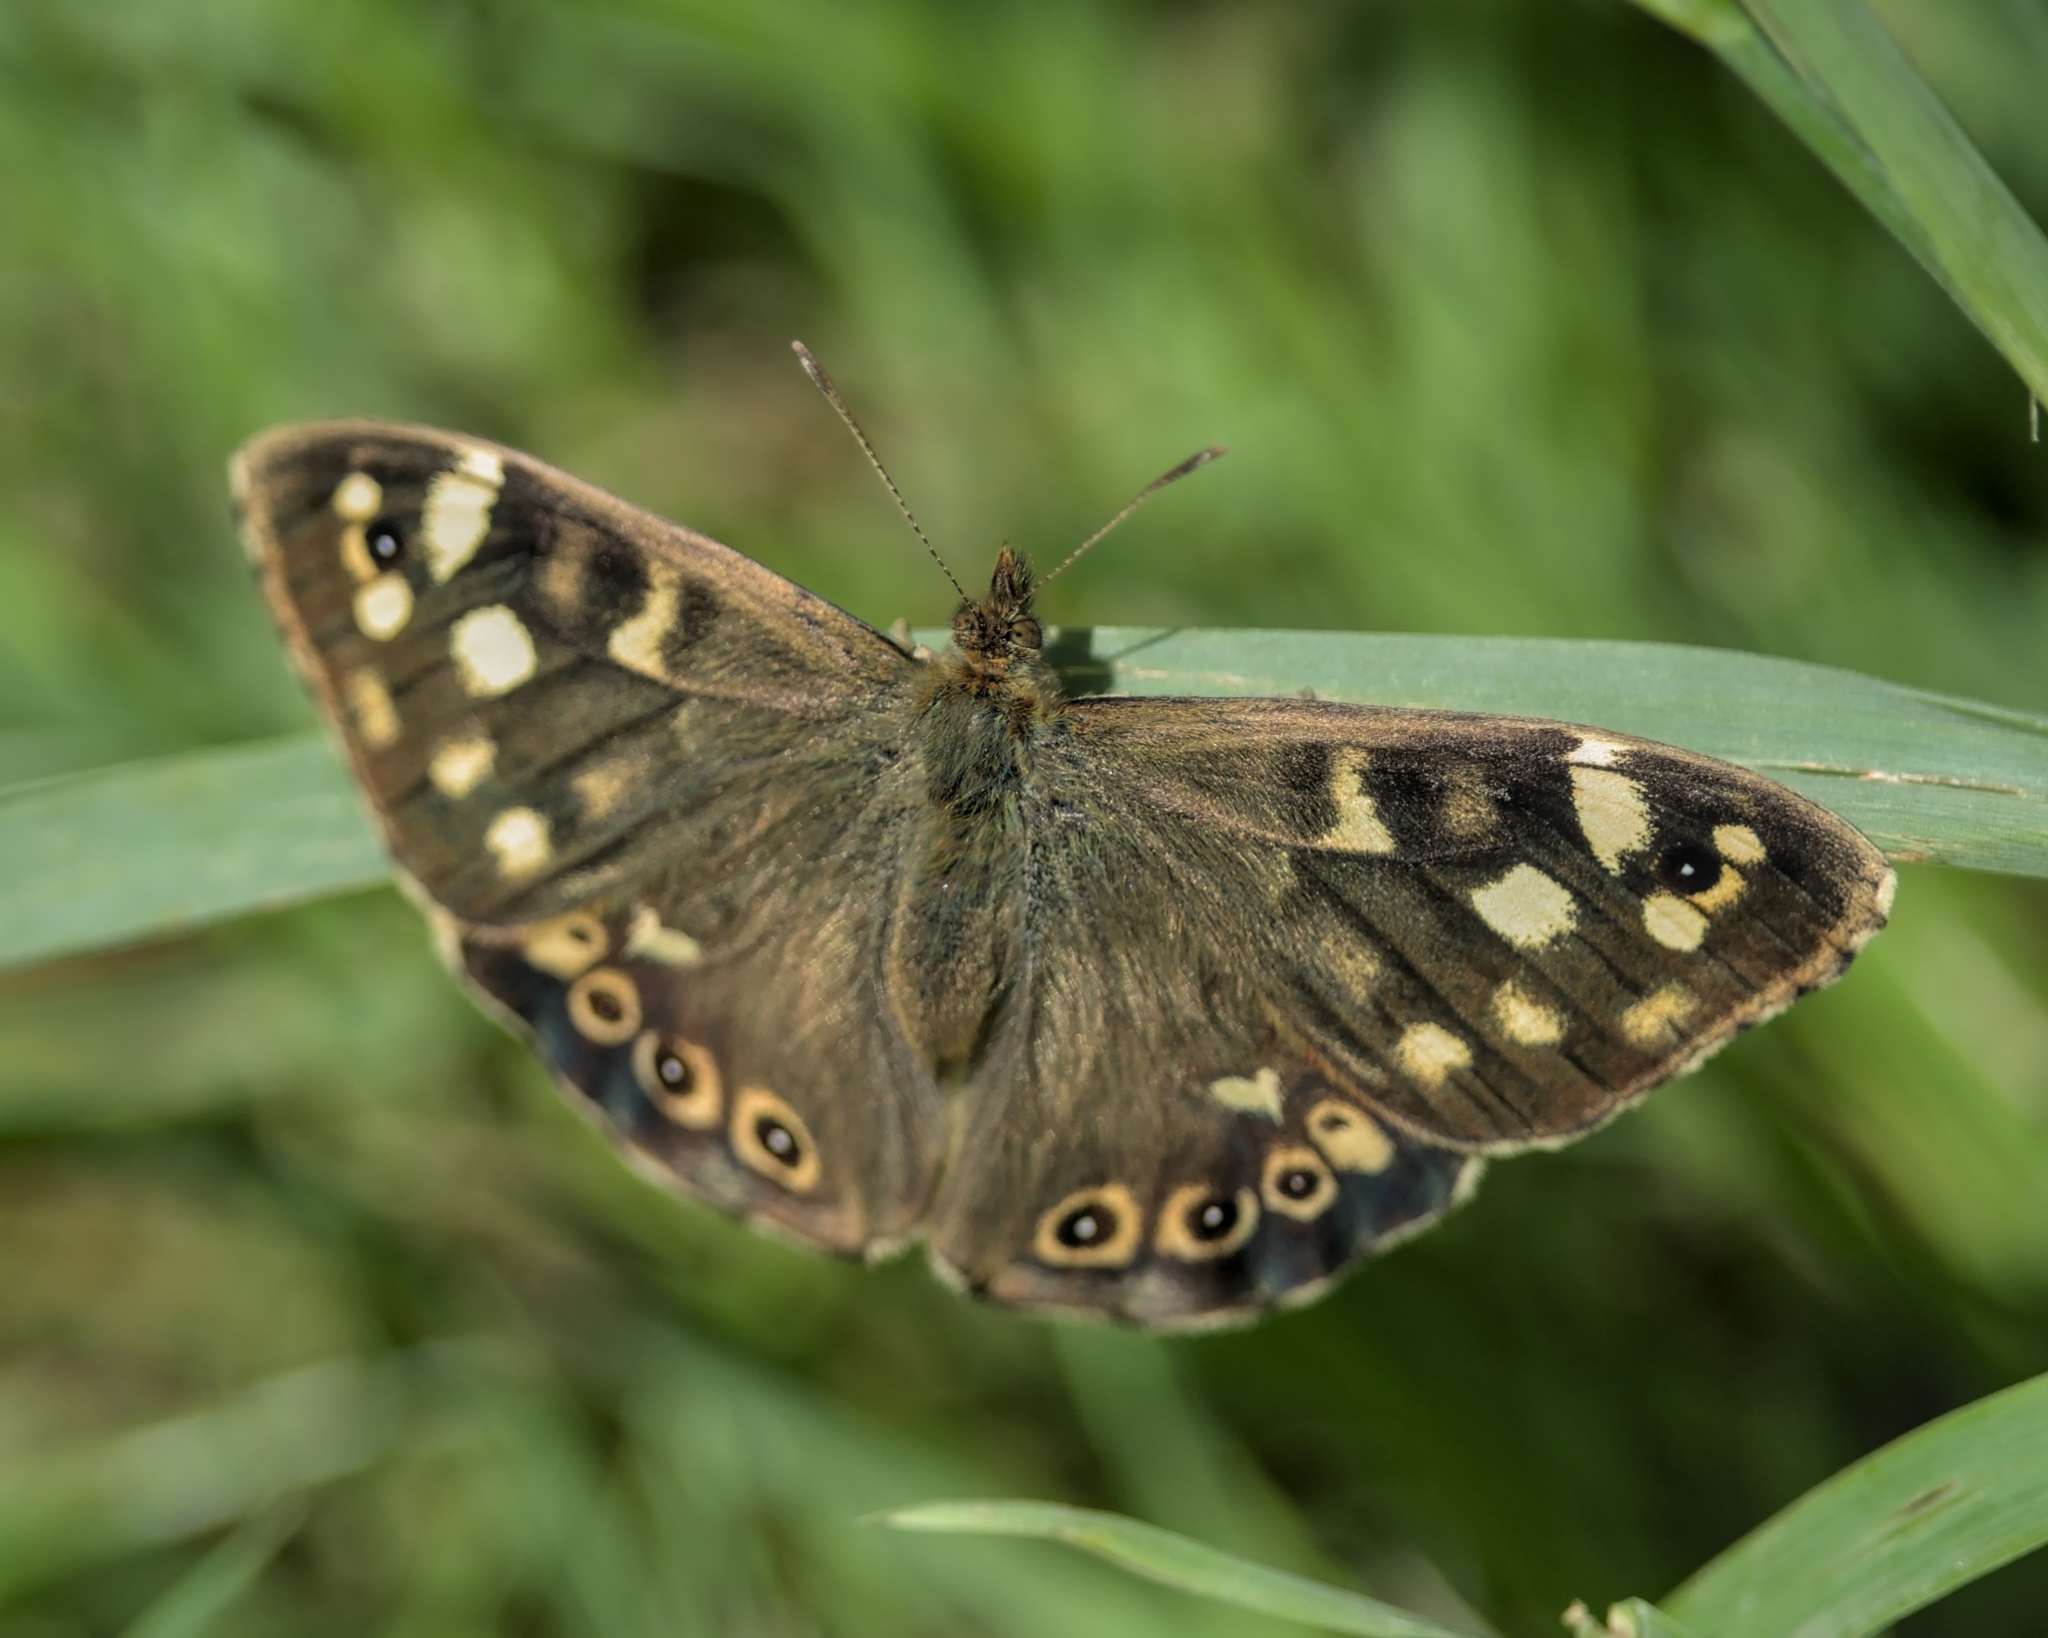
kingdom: Animalia
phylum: Arthropoda
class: Insecta
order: Lepidoptera
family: Nymphalidae
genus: Pararge
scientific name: Pararge aegeria
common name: Speckled wood
